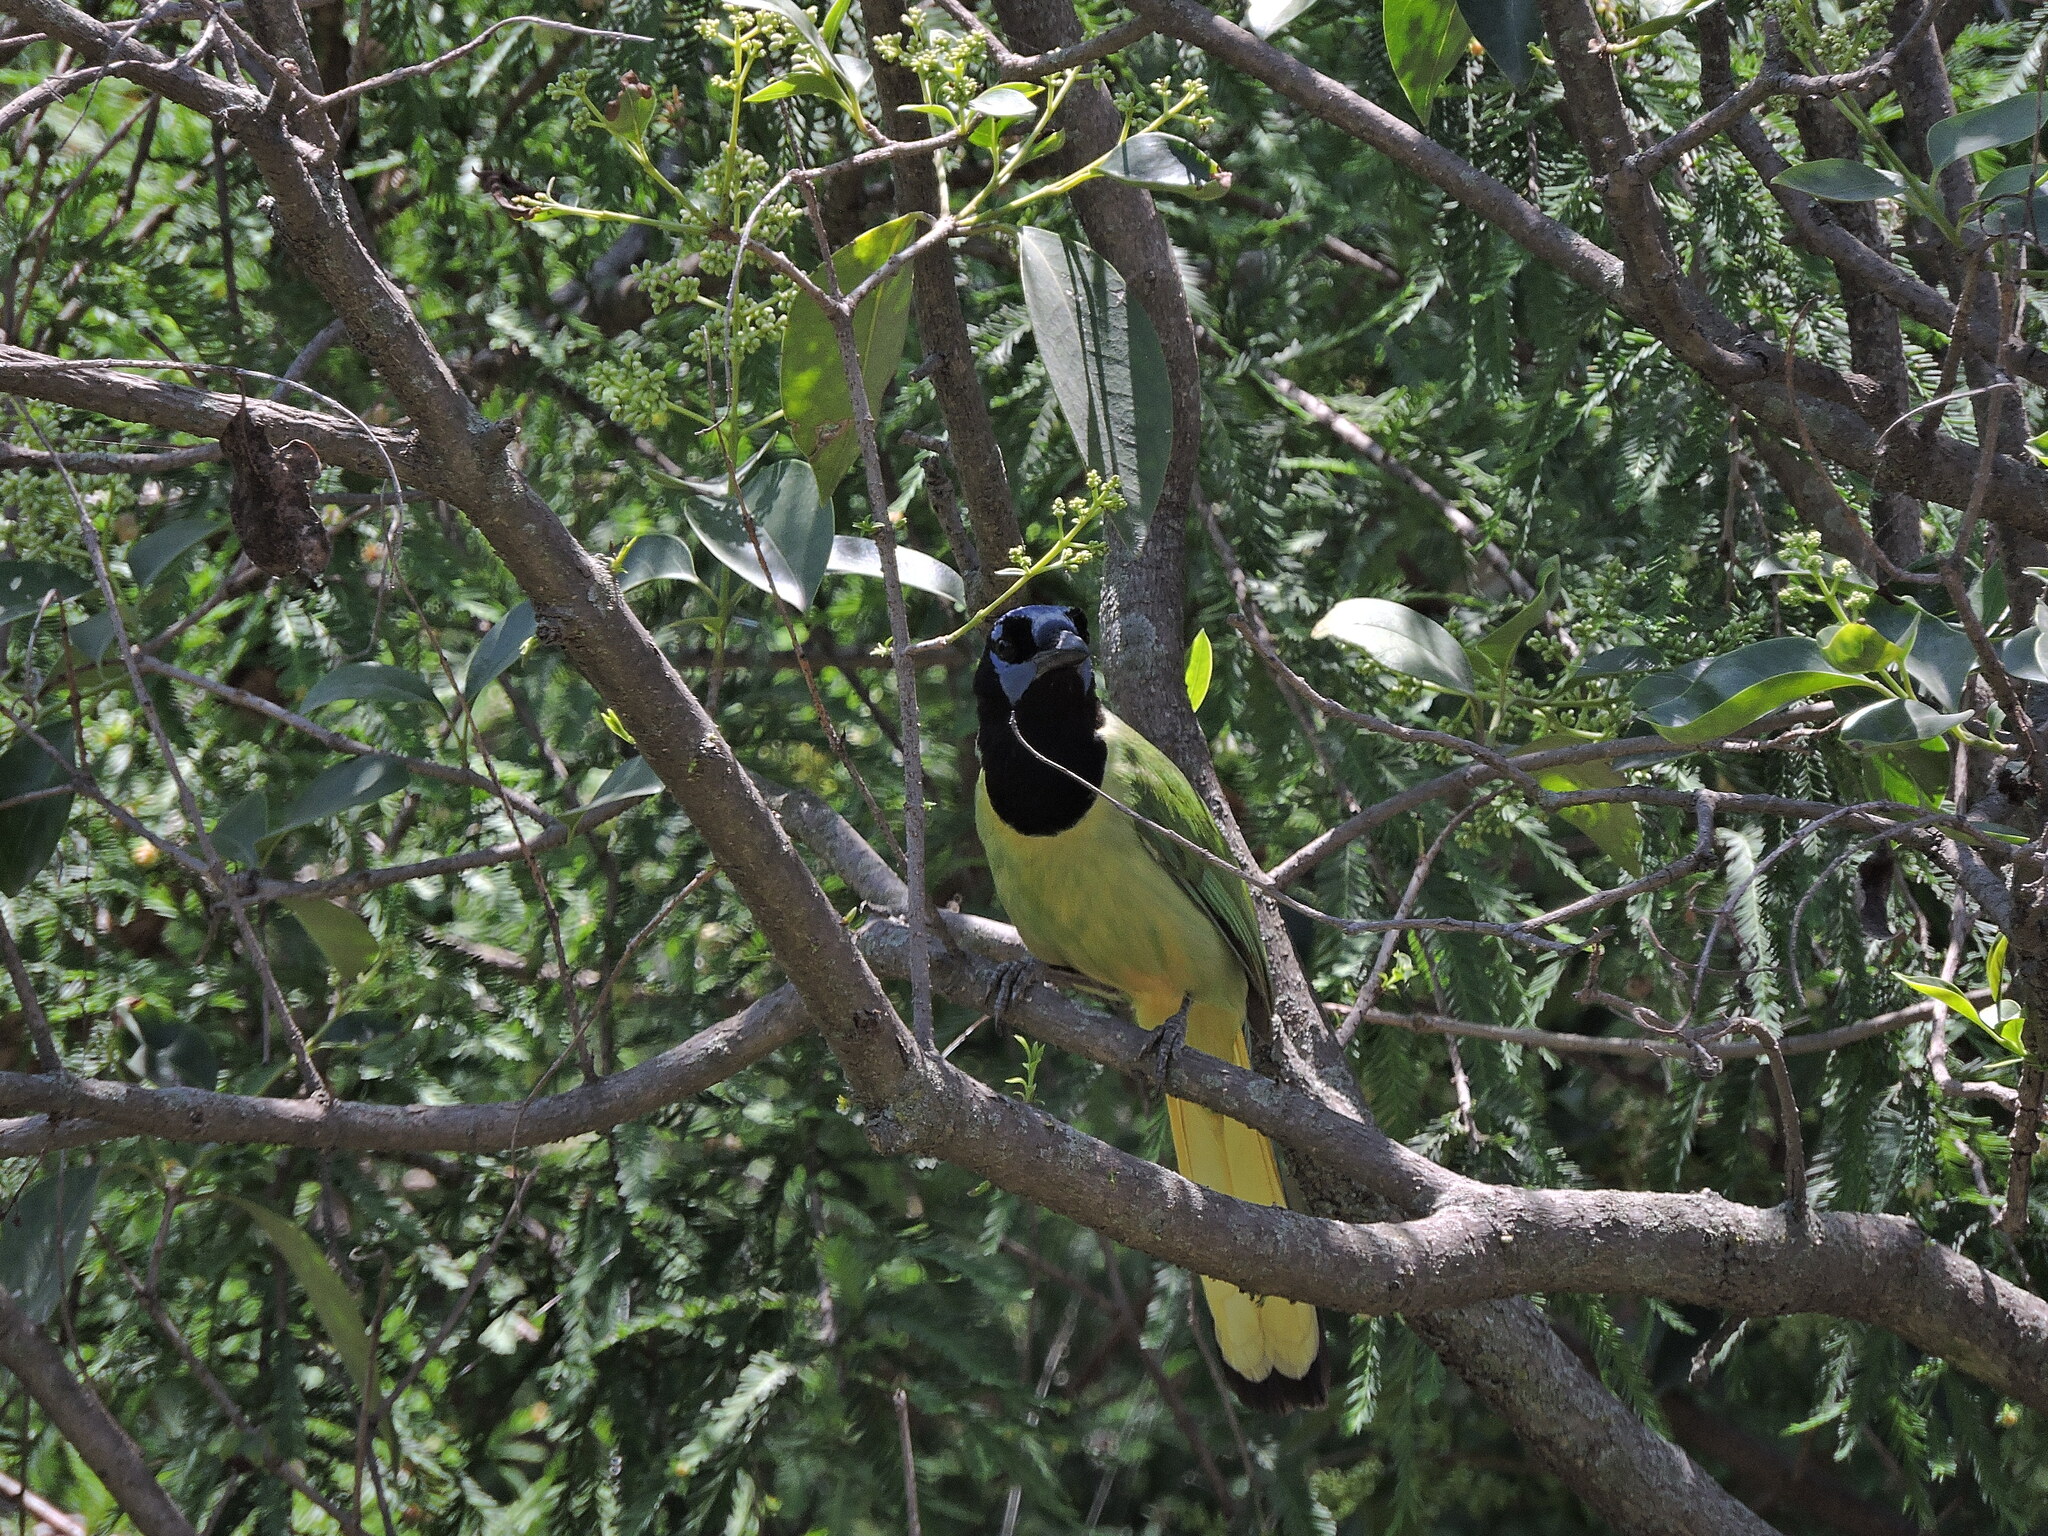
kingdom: Animalia
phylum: Chordata
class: Aves
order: Passeriformes
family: Corvidae
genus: Cyanocorax
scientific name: Cyanocorax yncas
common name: Green jay
